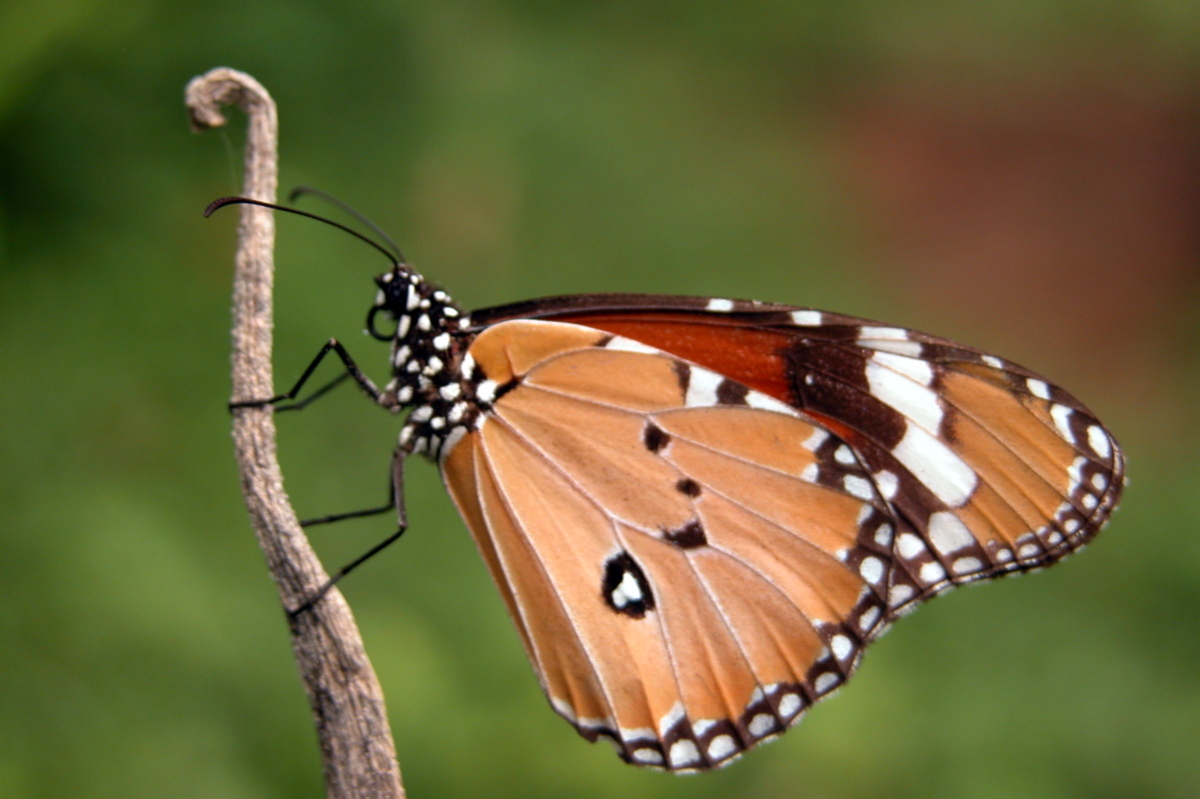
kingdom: Animalia
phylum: Arthropoda
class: Insecta
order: Lepidoptera
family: Nymphalidae
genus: Danaus
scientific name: Danaus chrysippus
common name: Plain tiger
